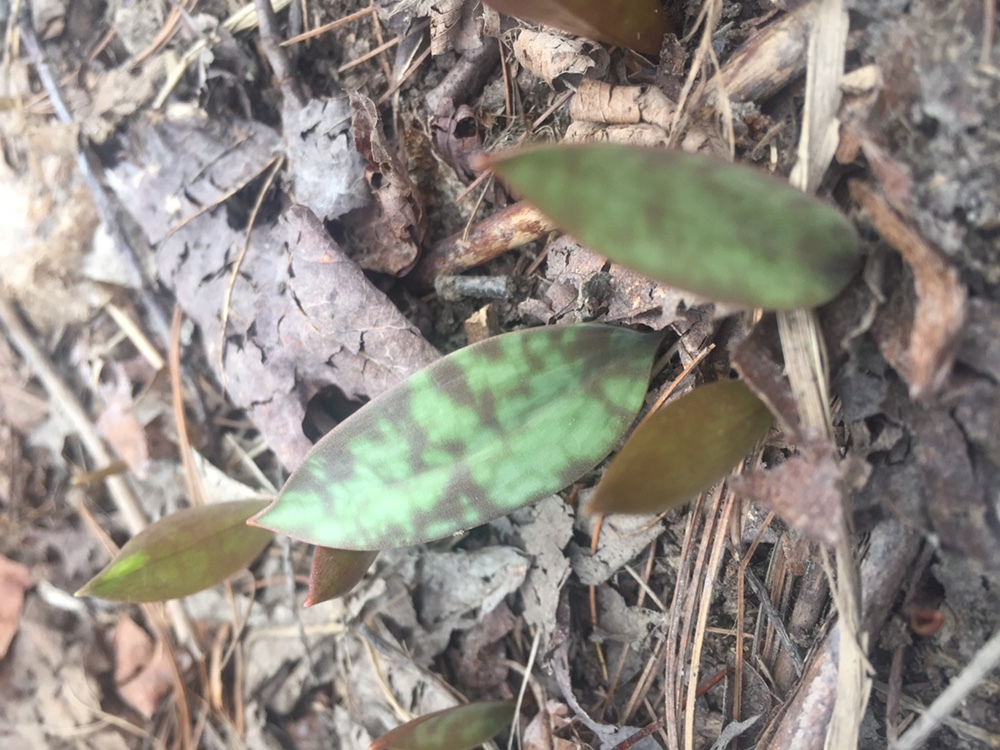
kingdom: Plantae
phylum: Tracheophyta
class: Liliopsida
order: Liliales
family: Liliaceae
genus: Erythronium
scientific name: Erythronium americanum
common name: Yellow adder's-tongue
